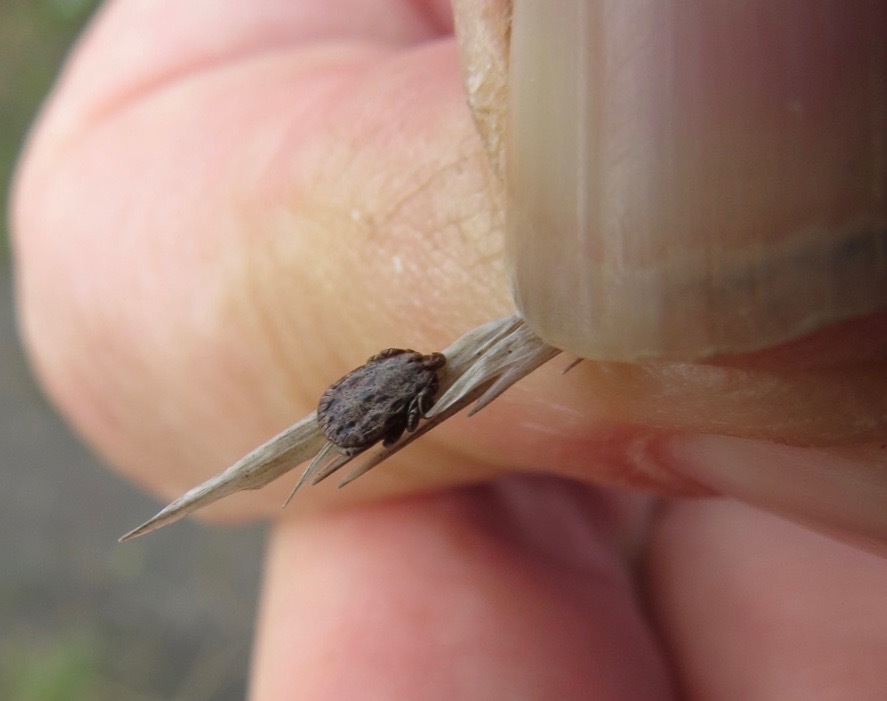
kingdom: Animalia
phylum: Arthropoda
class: Arachnida
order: Ixodida
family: Ixodidae
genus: Dermacentor
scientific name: Dermacentor occidentalis
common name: Net tick
